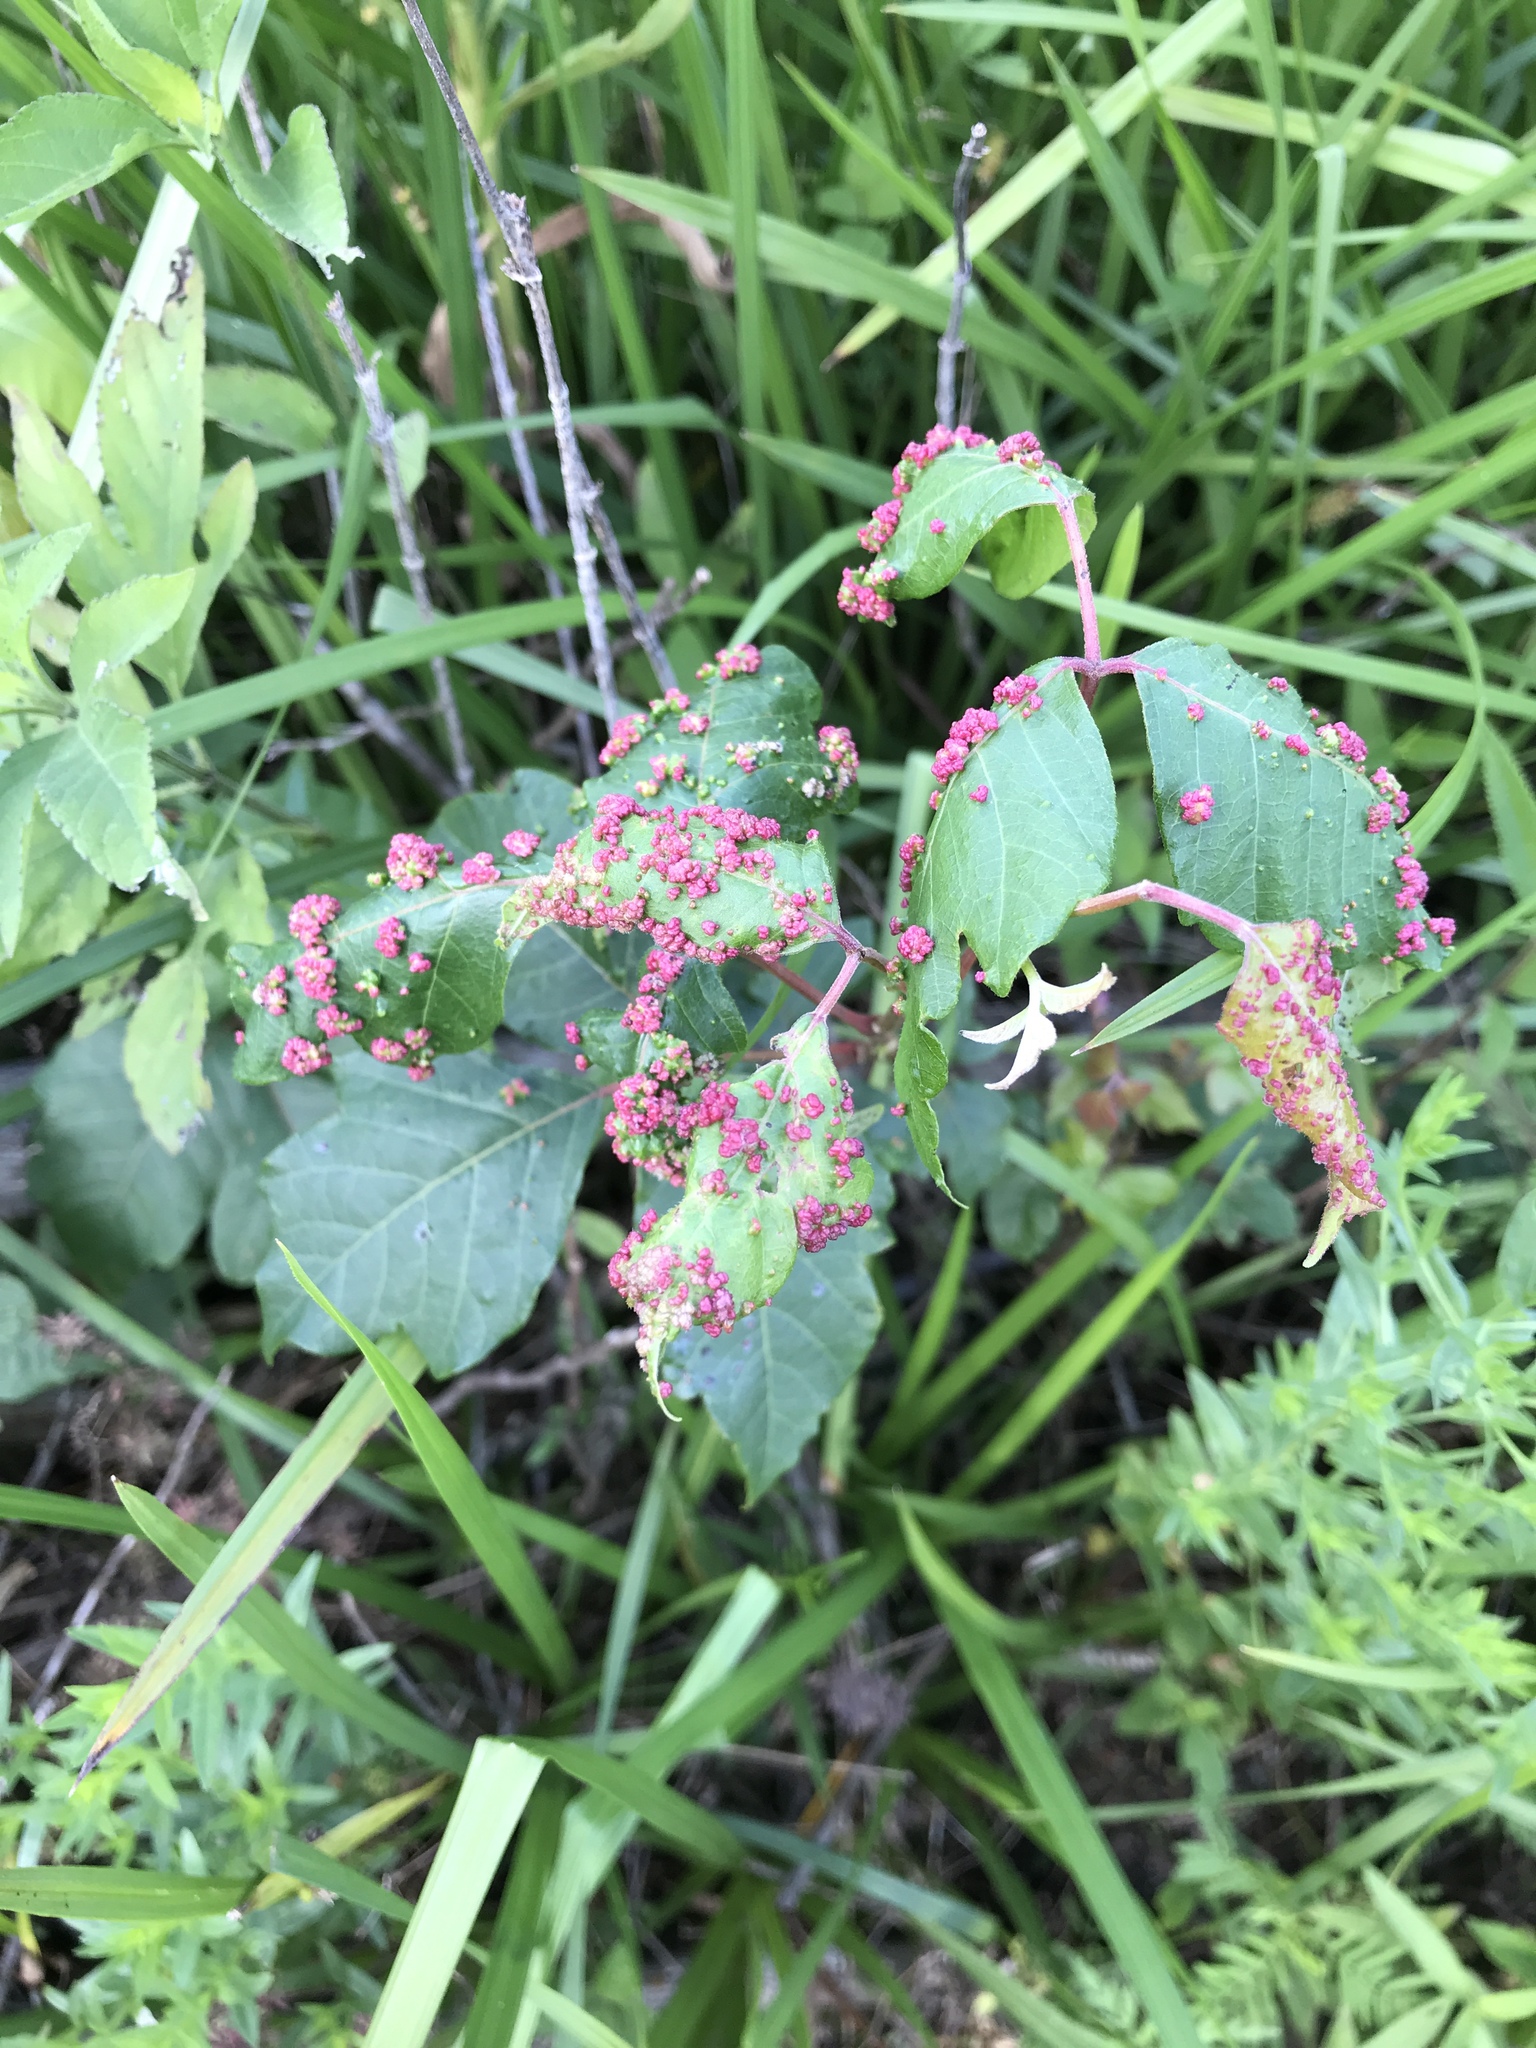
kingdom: Animalia
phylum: Arthropoda
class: Arachnida
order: Trombidiformes
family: Eriophyidae
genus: Aculops
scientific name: Aculops
